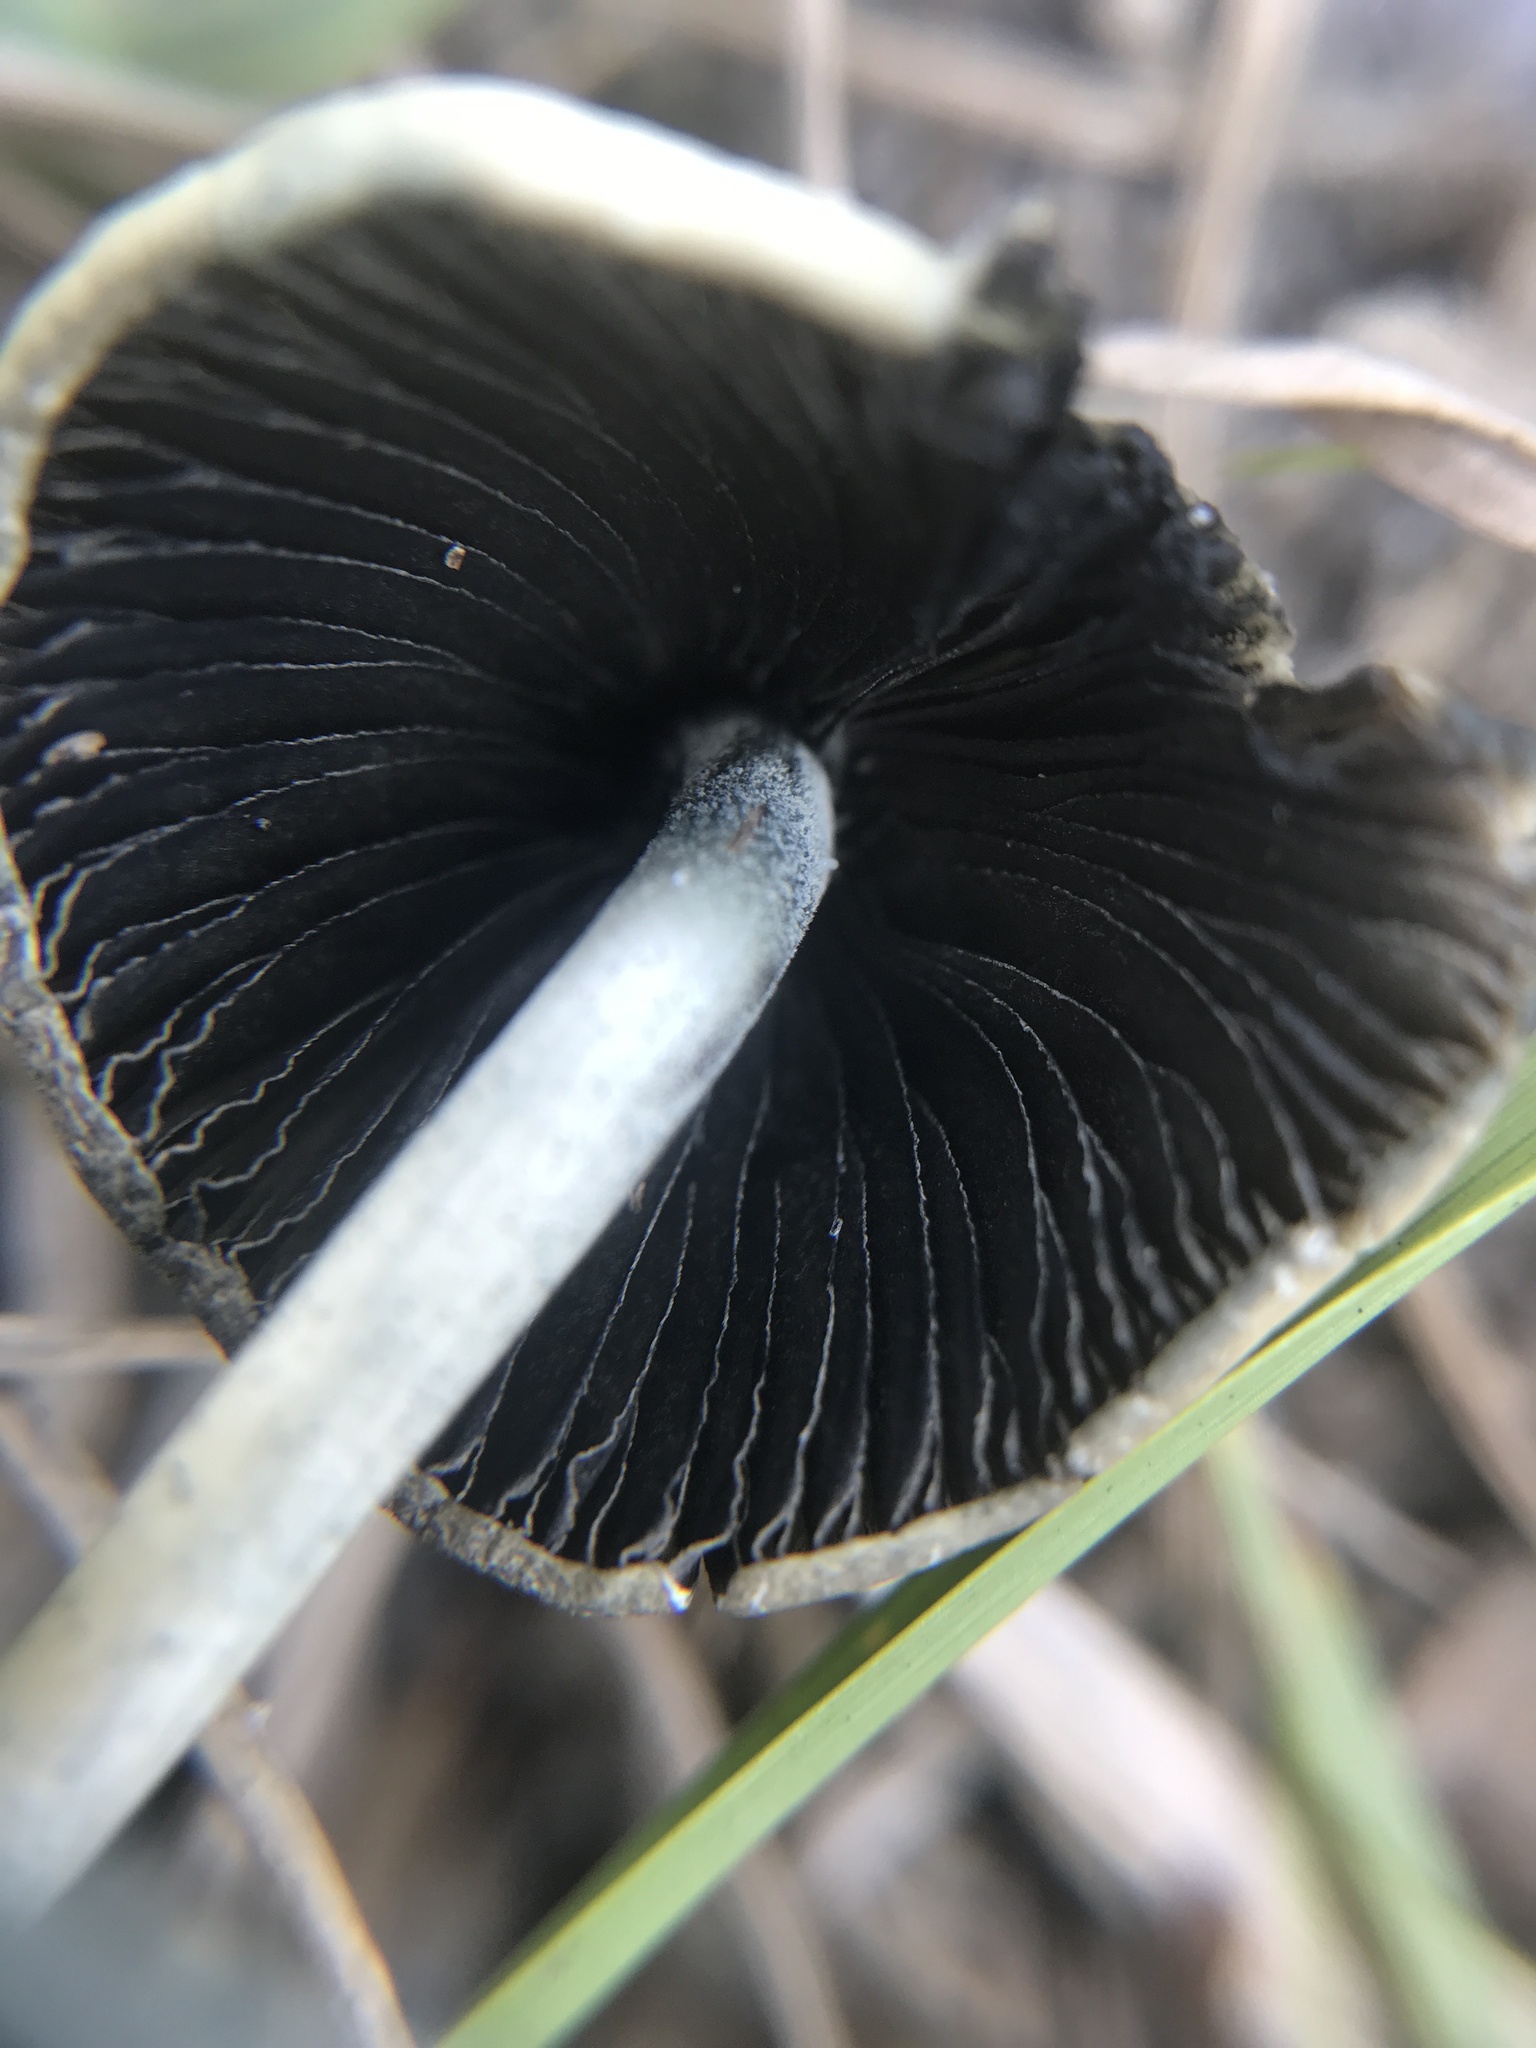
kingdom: Fungi
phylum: Basidiomycota
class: Agaricomycetes
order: Agaricales
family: Bolbitiaceae
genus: Panaeolus
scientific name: Panaeolus cyanescens
